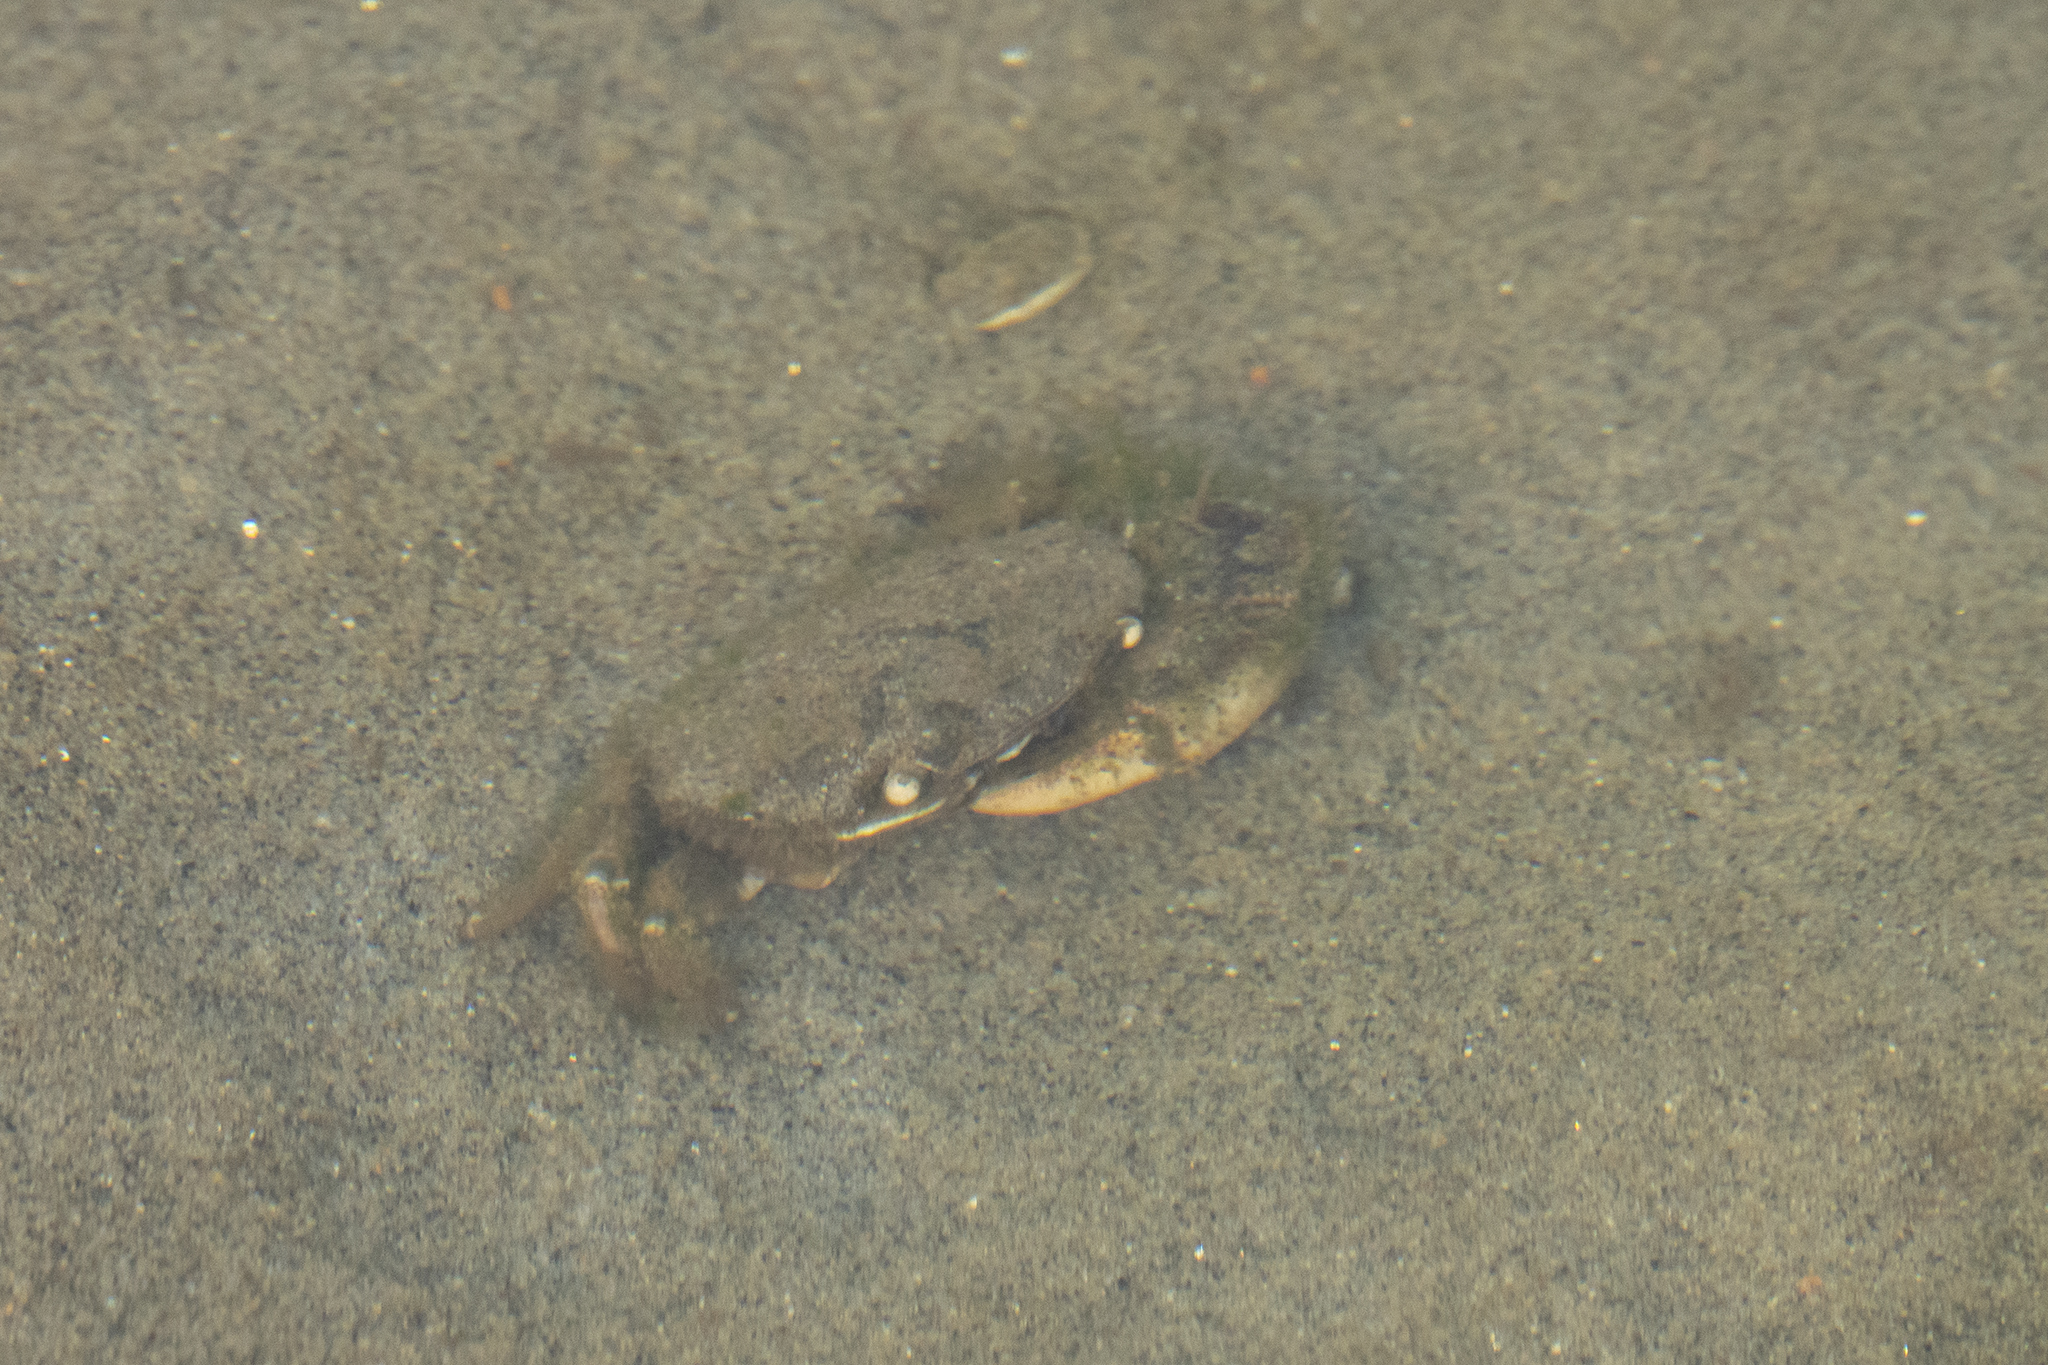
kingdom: Animalia
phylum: Arthropoda
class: Malacostraca
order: Decapoda
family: Varunidae
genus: Hemigrapsus
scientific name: Hemigrapsus crenulatus
